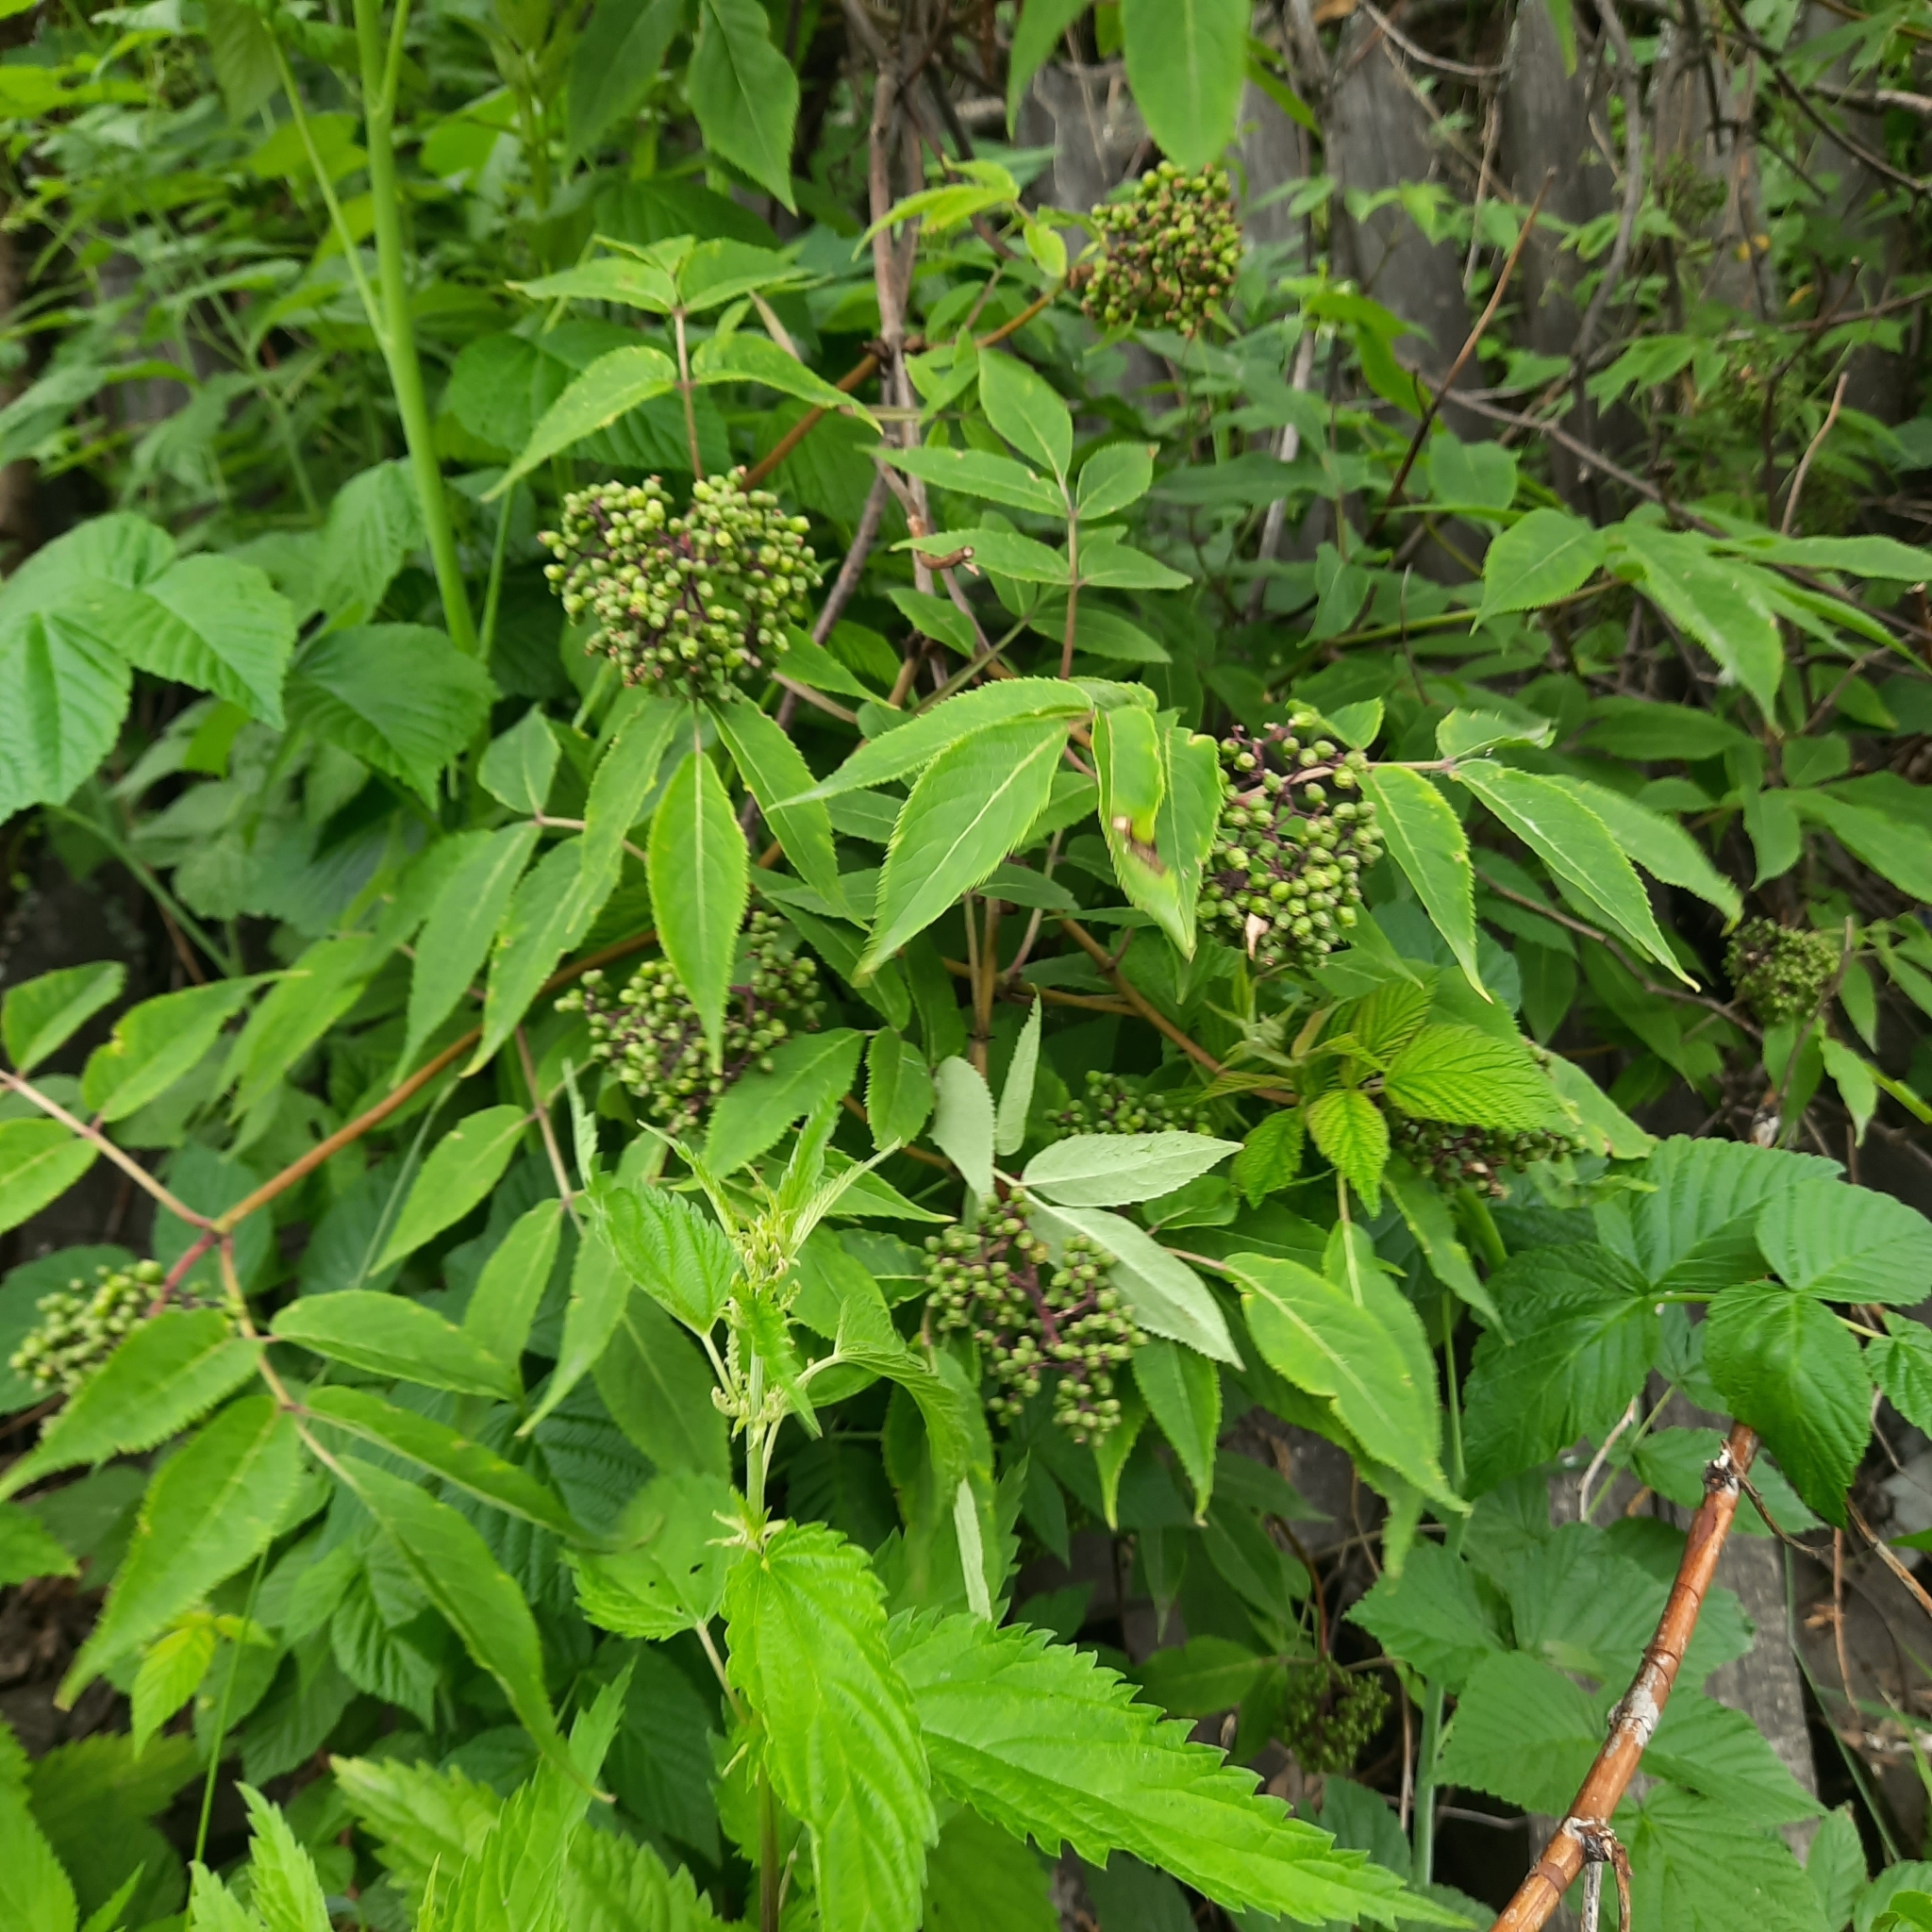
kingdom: Plantae
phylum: Tracheophyta
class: Magnoliopsida
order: Dipsacales
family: Viburnaceae
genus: Sambucus
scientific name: Sambucus sibirica
